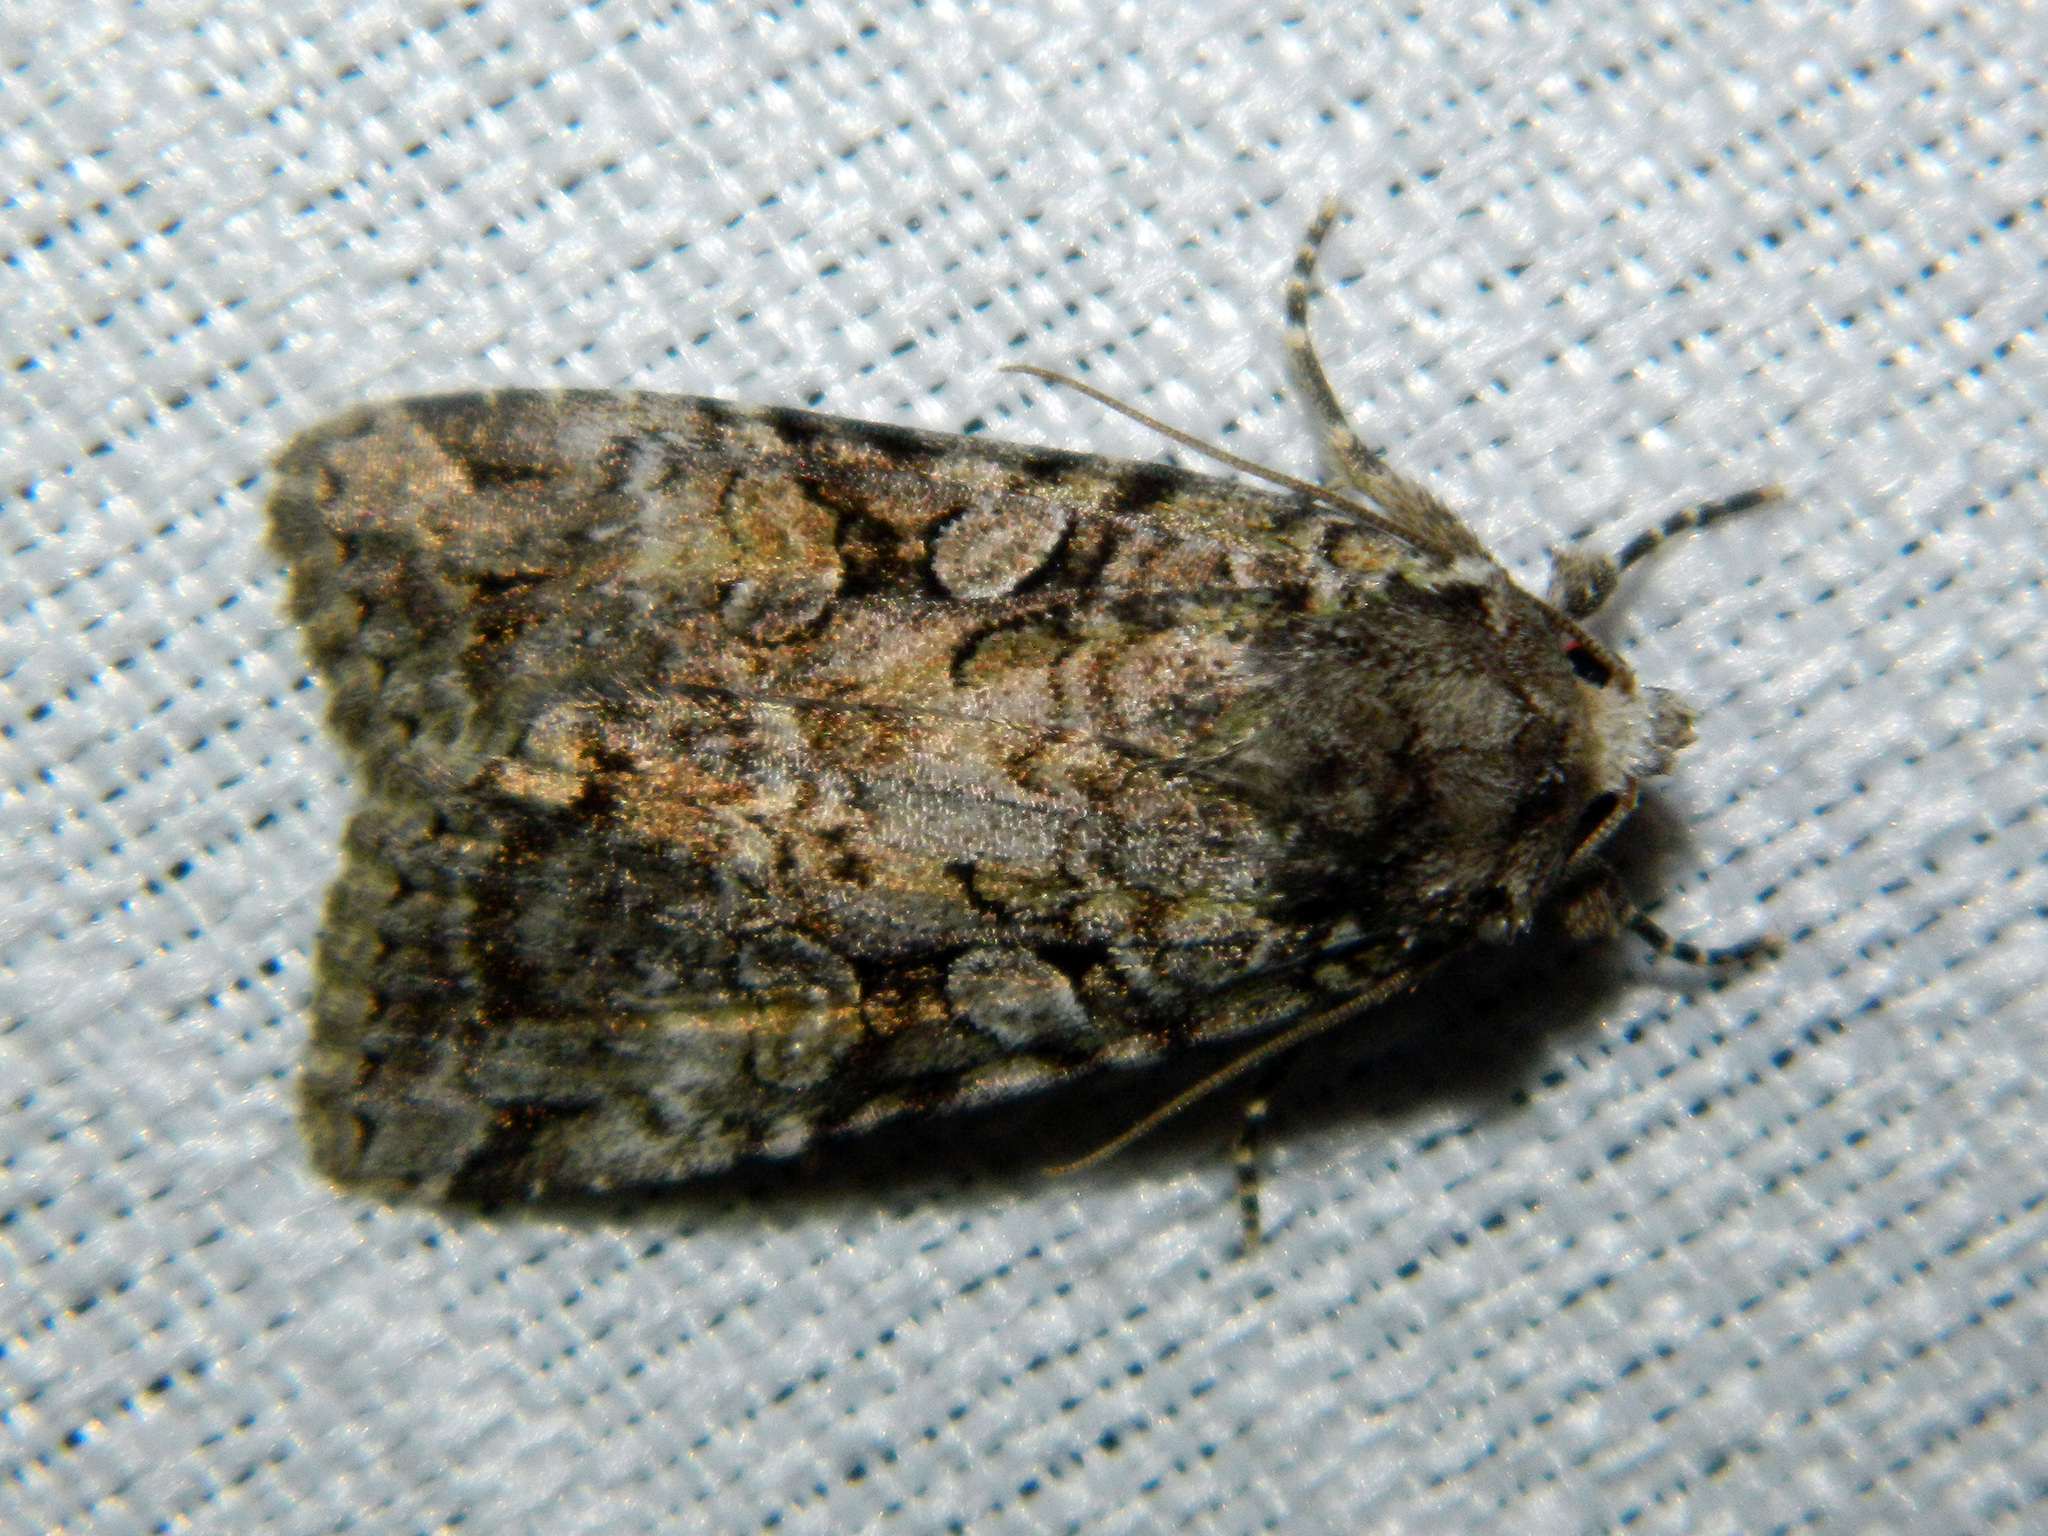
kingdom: Animalia
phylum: Arthropoda
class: Insecta
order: Lepidoptera
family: Noctuidae
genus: Anaplectoides
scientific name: Anaplectoides pressus
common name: Dappled dart
